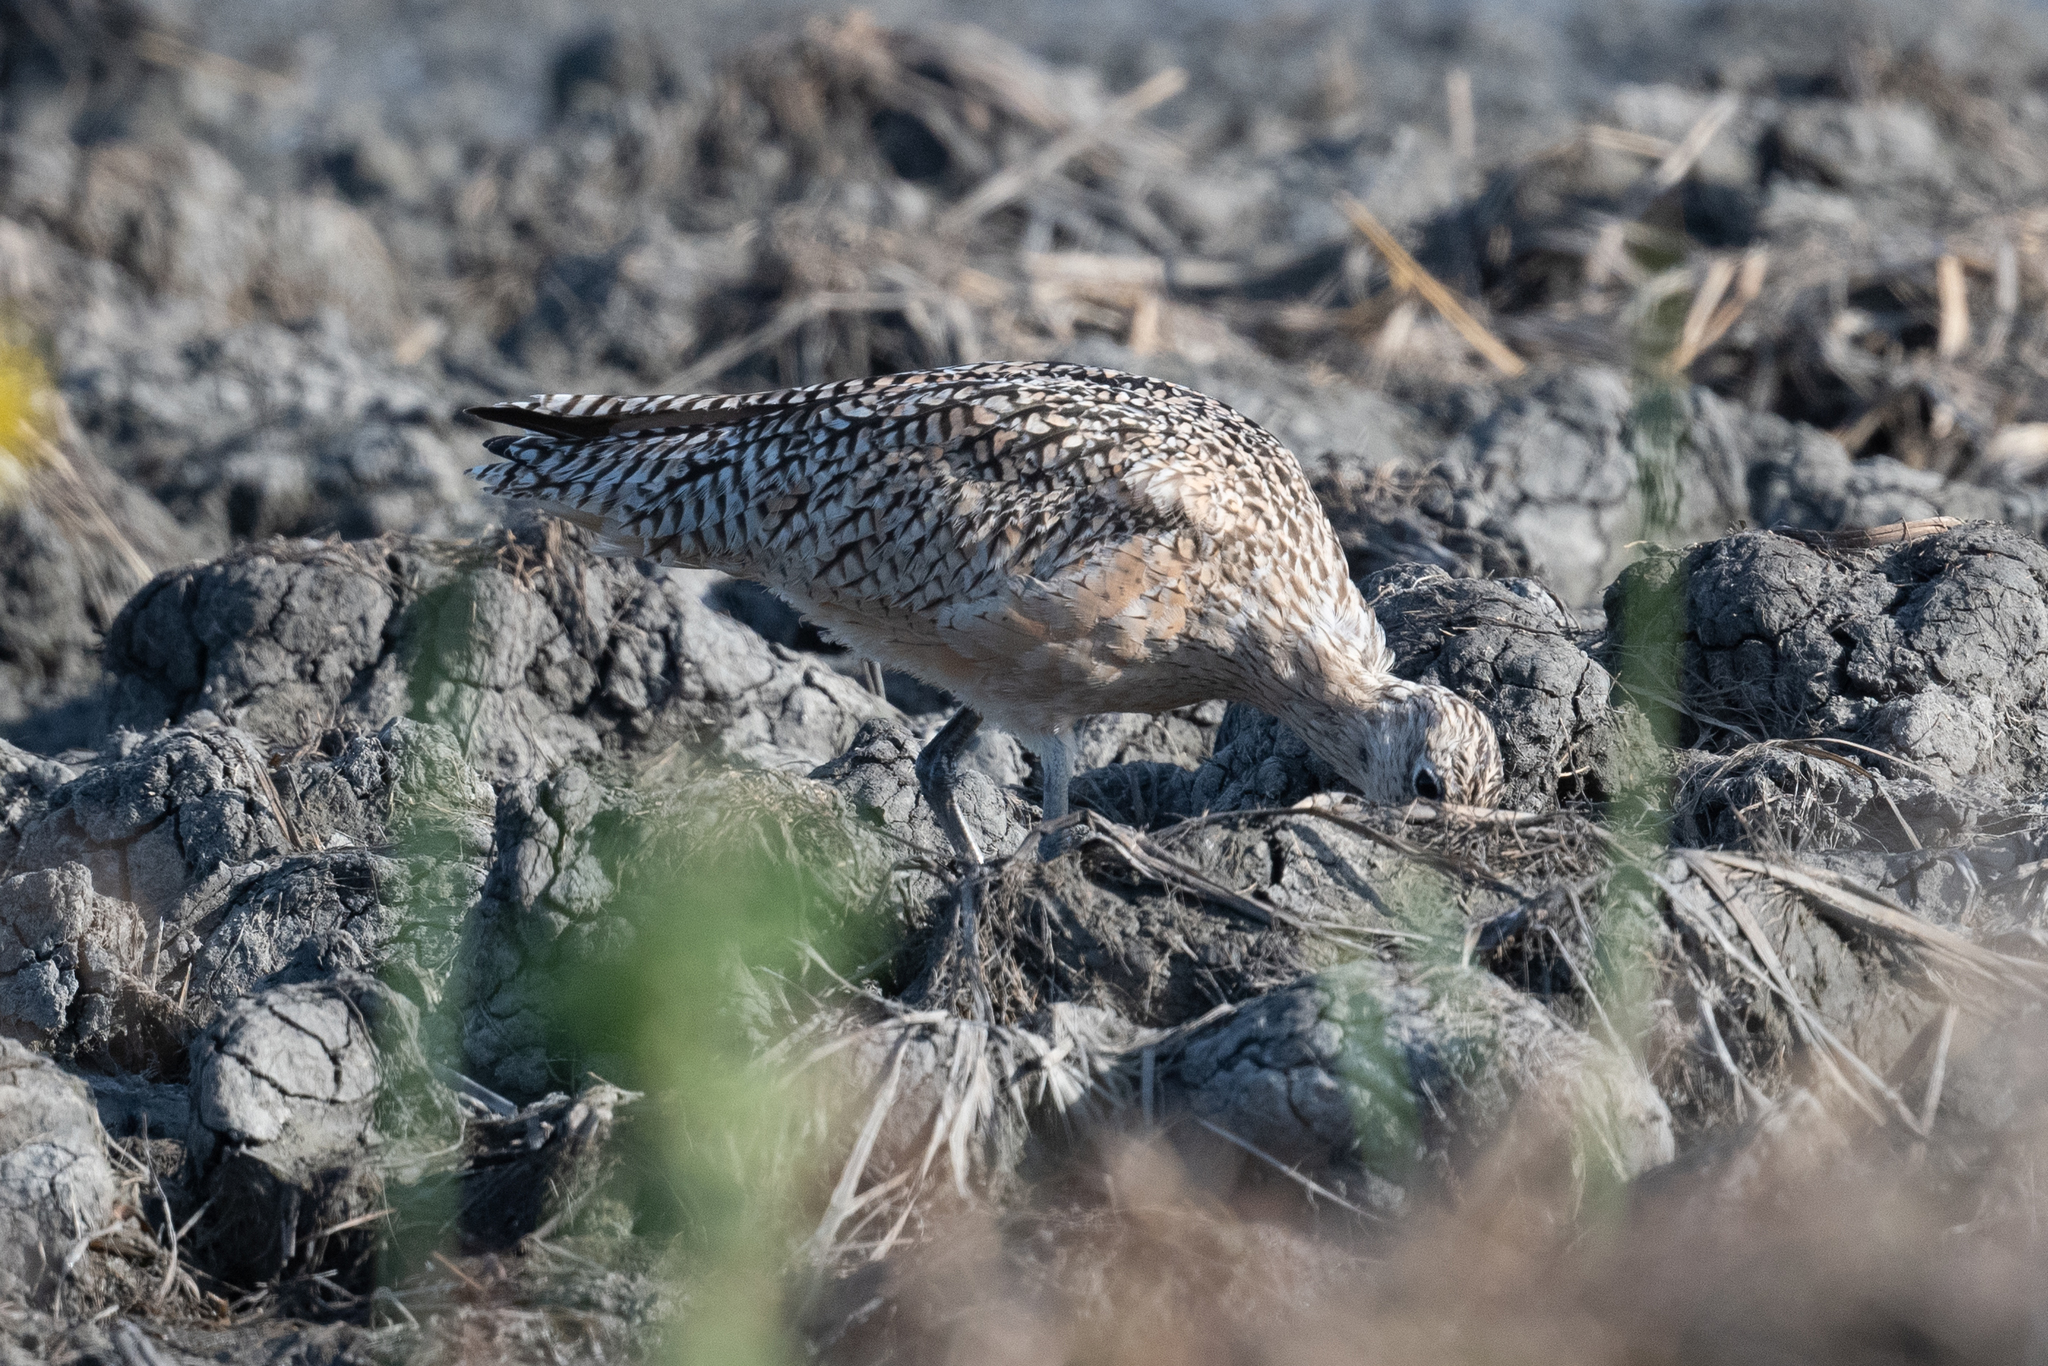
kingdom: Animalia
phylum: Chordata
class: Aves
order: Charadriiformes
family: Scolopacidae
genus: Numenius
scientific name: Numenius americanus
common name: Long-billed curlew
